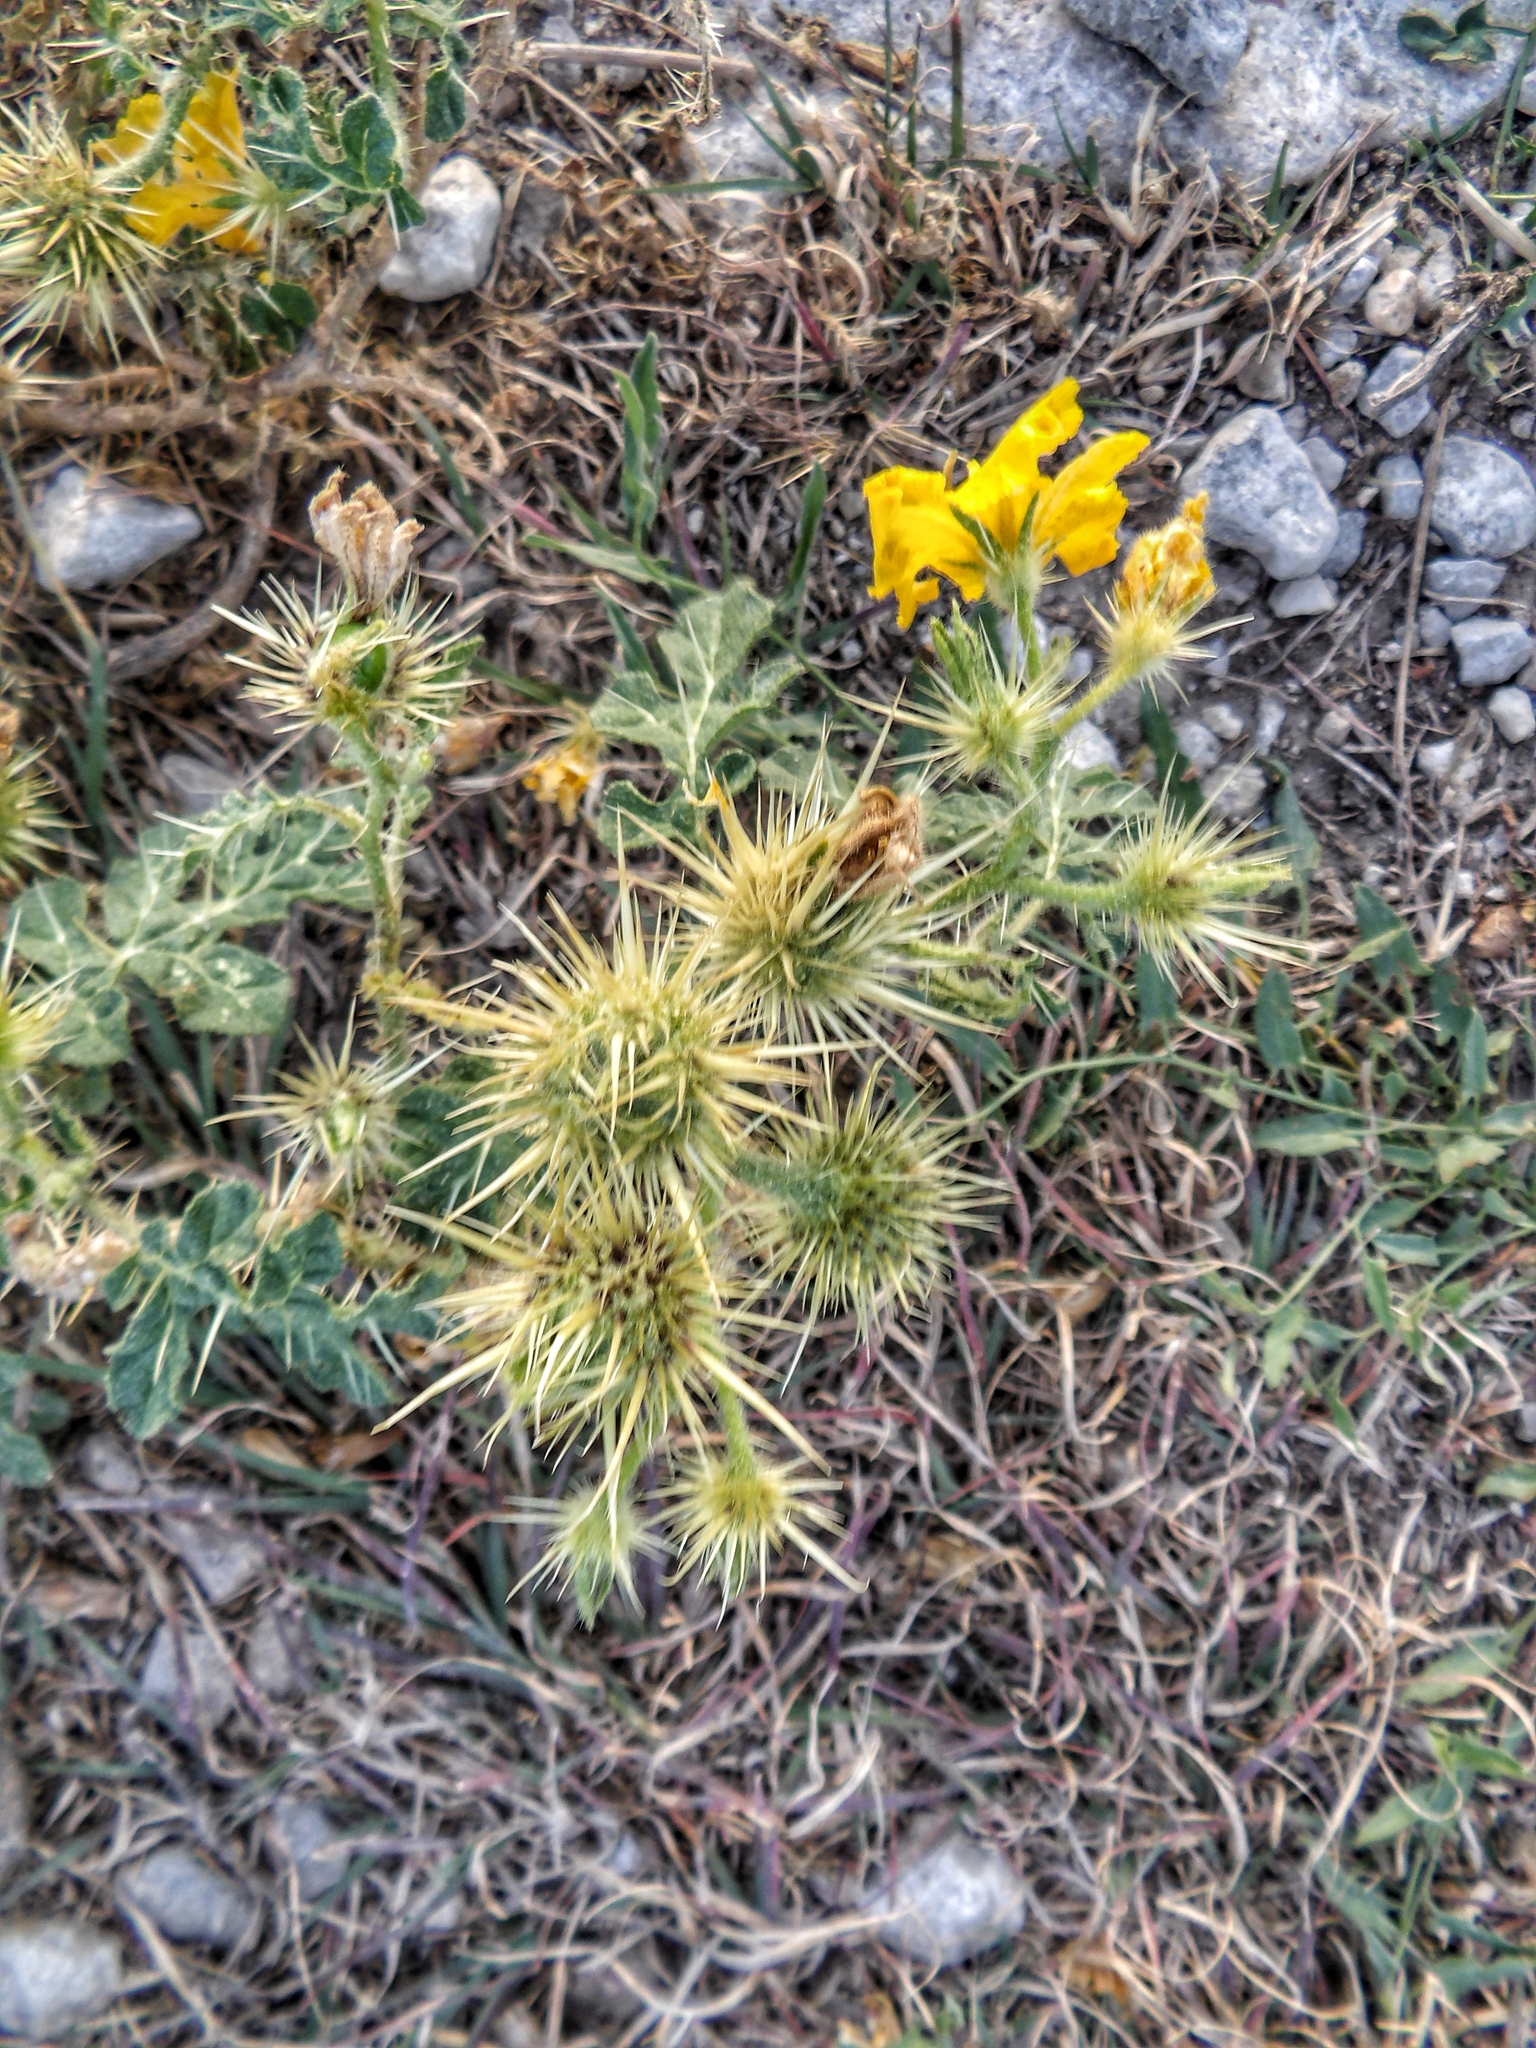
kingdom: Plantae
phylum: Tracheophyta
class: Magnoliopsida
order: Solanales
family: Solanaceae
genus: Solanum
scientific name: Solanum angustifolium
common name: Buffalobur nightshade
